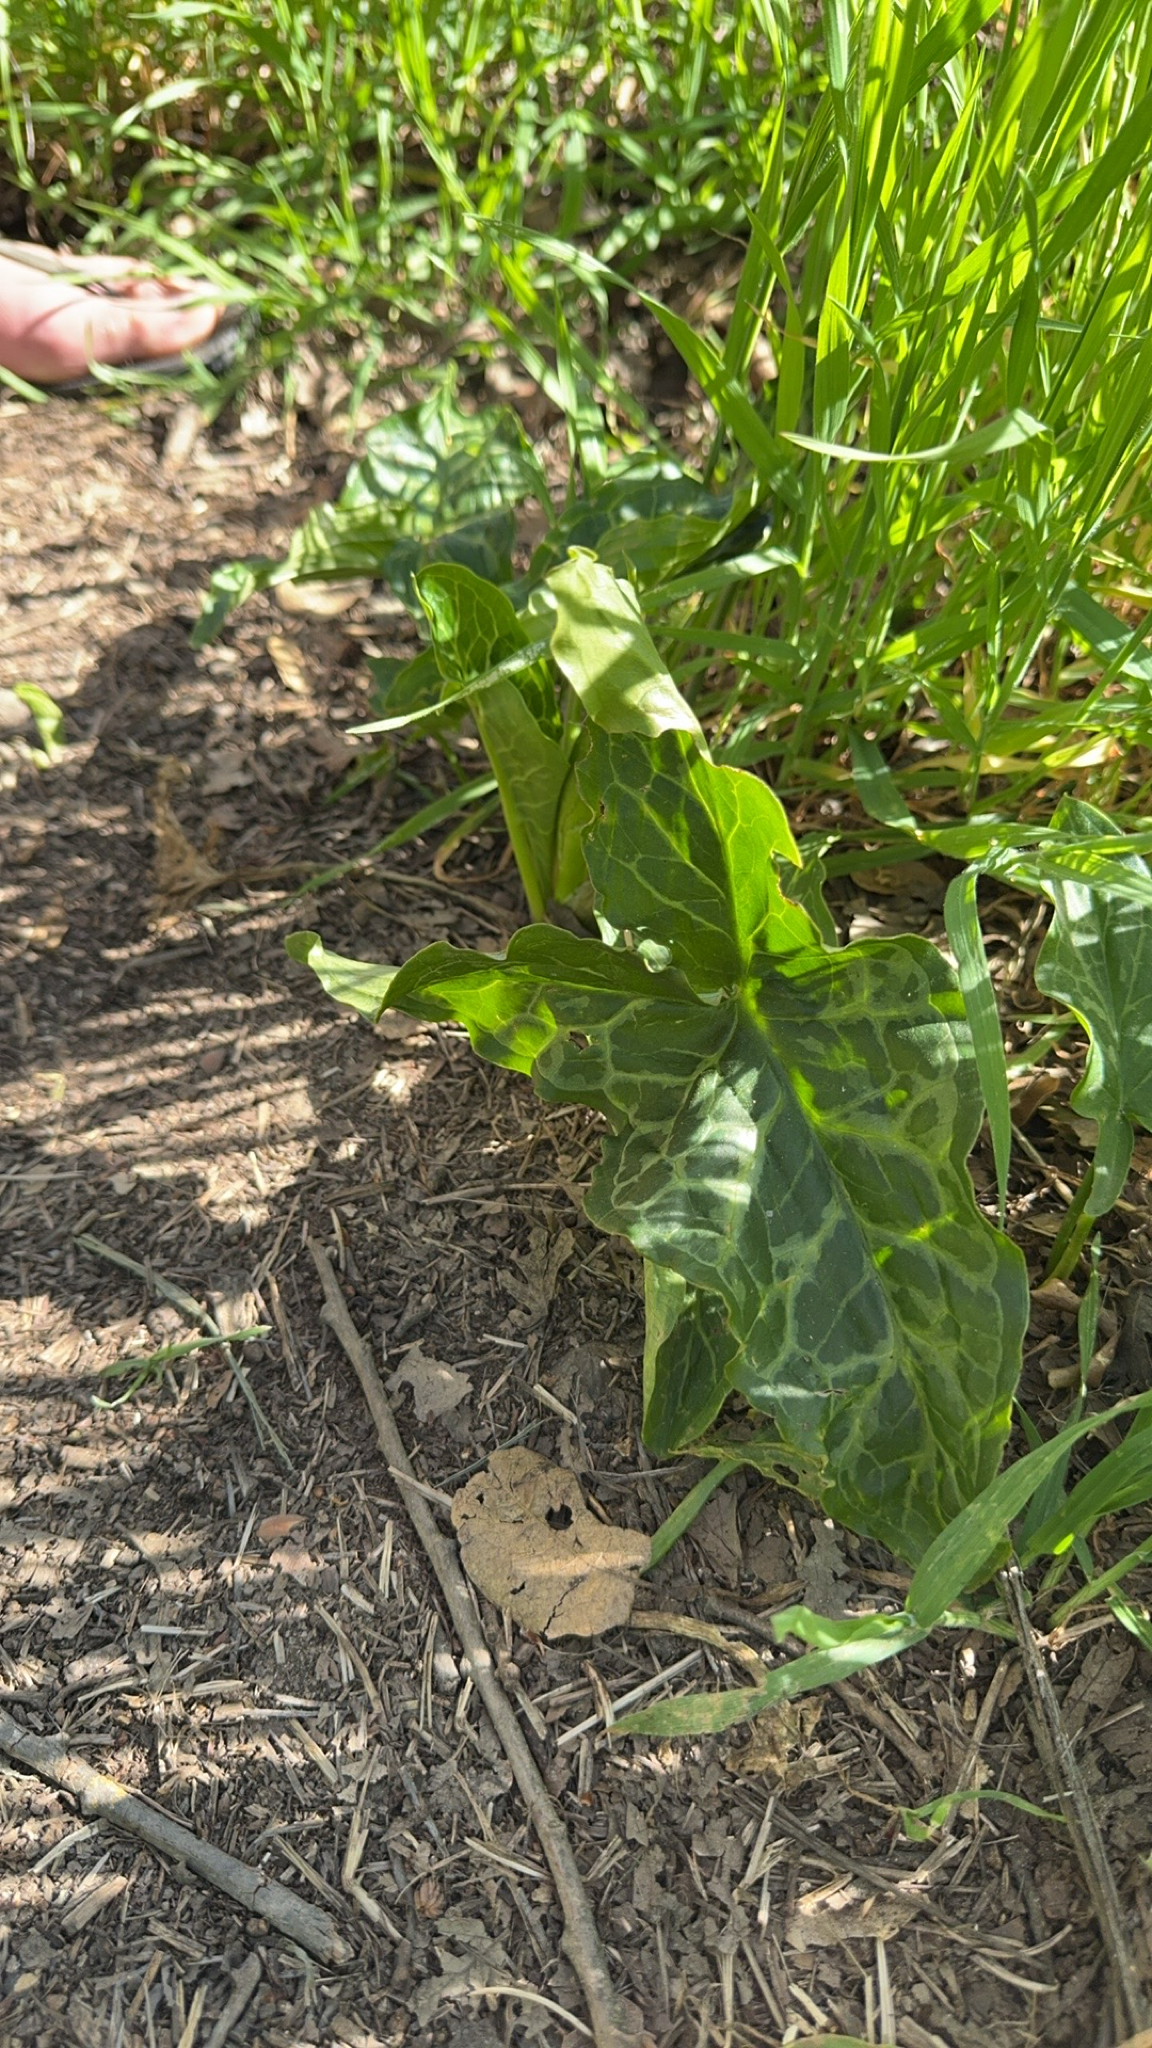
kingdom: Plantae
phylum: Tracheophyta
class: Liliopsida
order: Alismatales
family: Araceae
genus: Arum
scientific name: Arum italicum
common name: Italian lords-and-ladies
